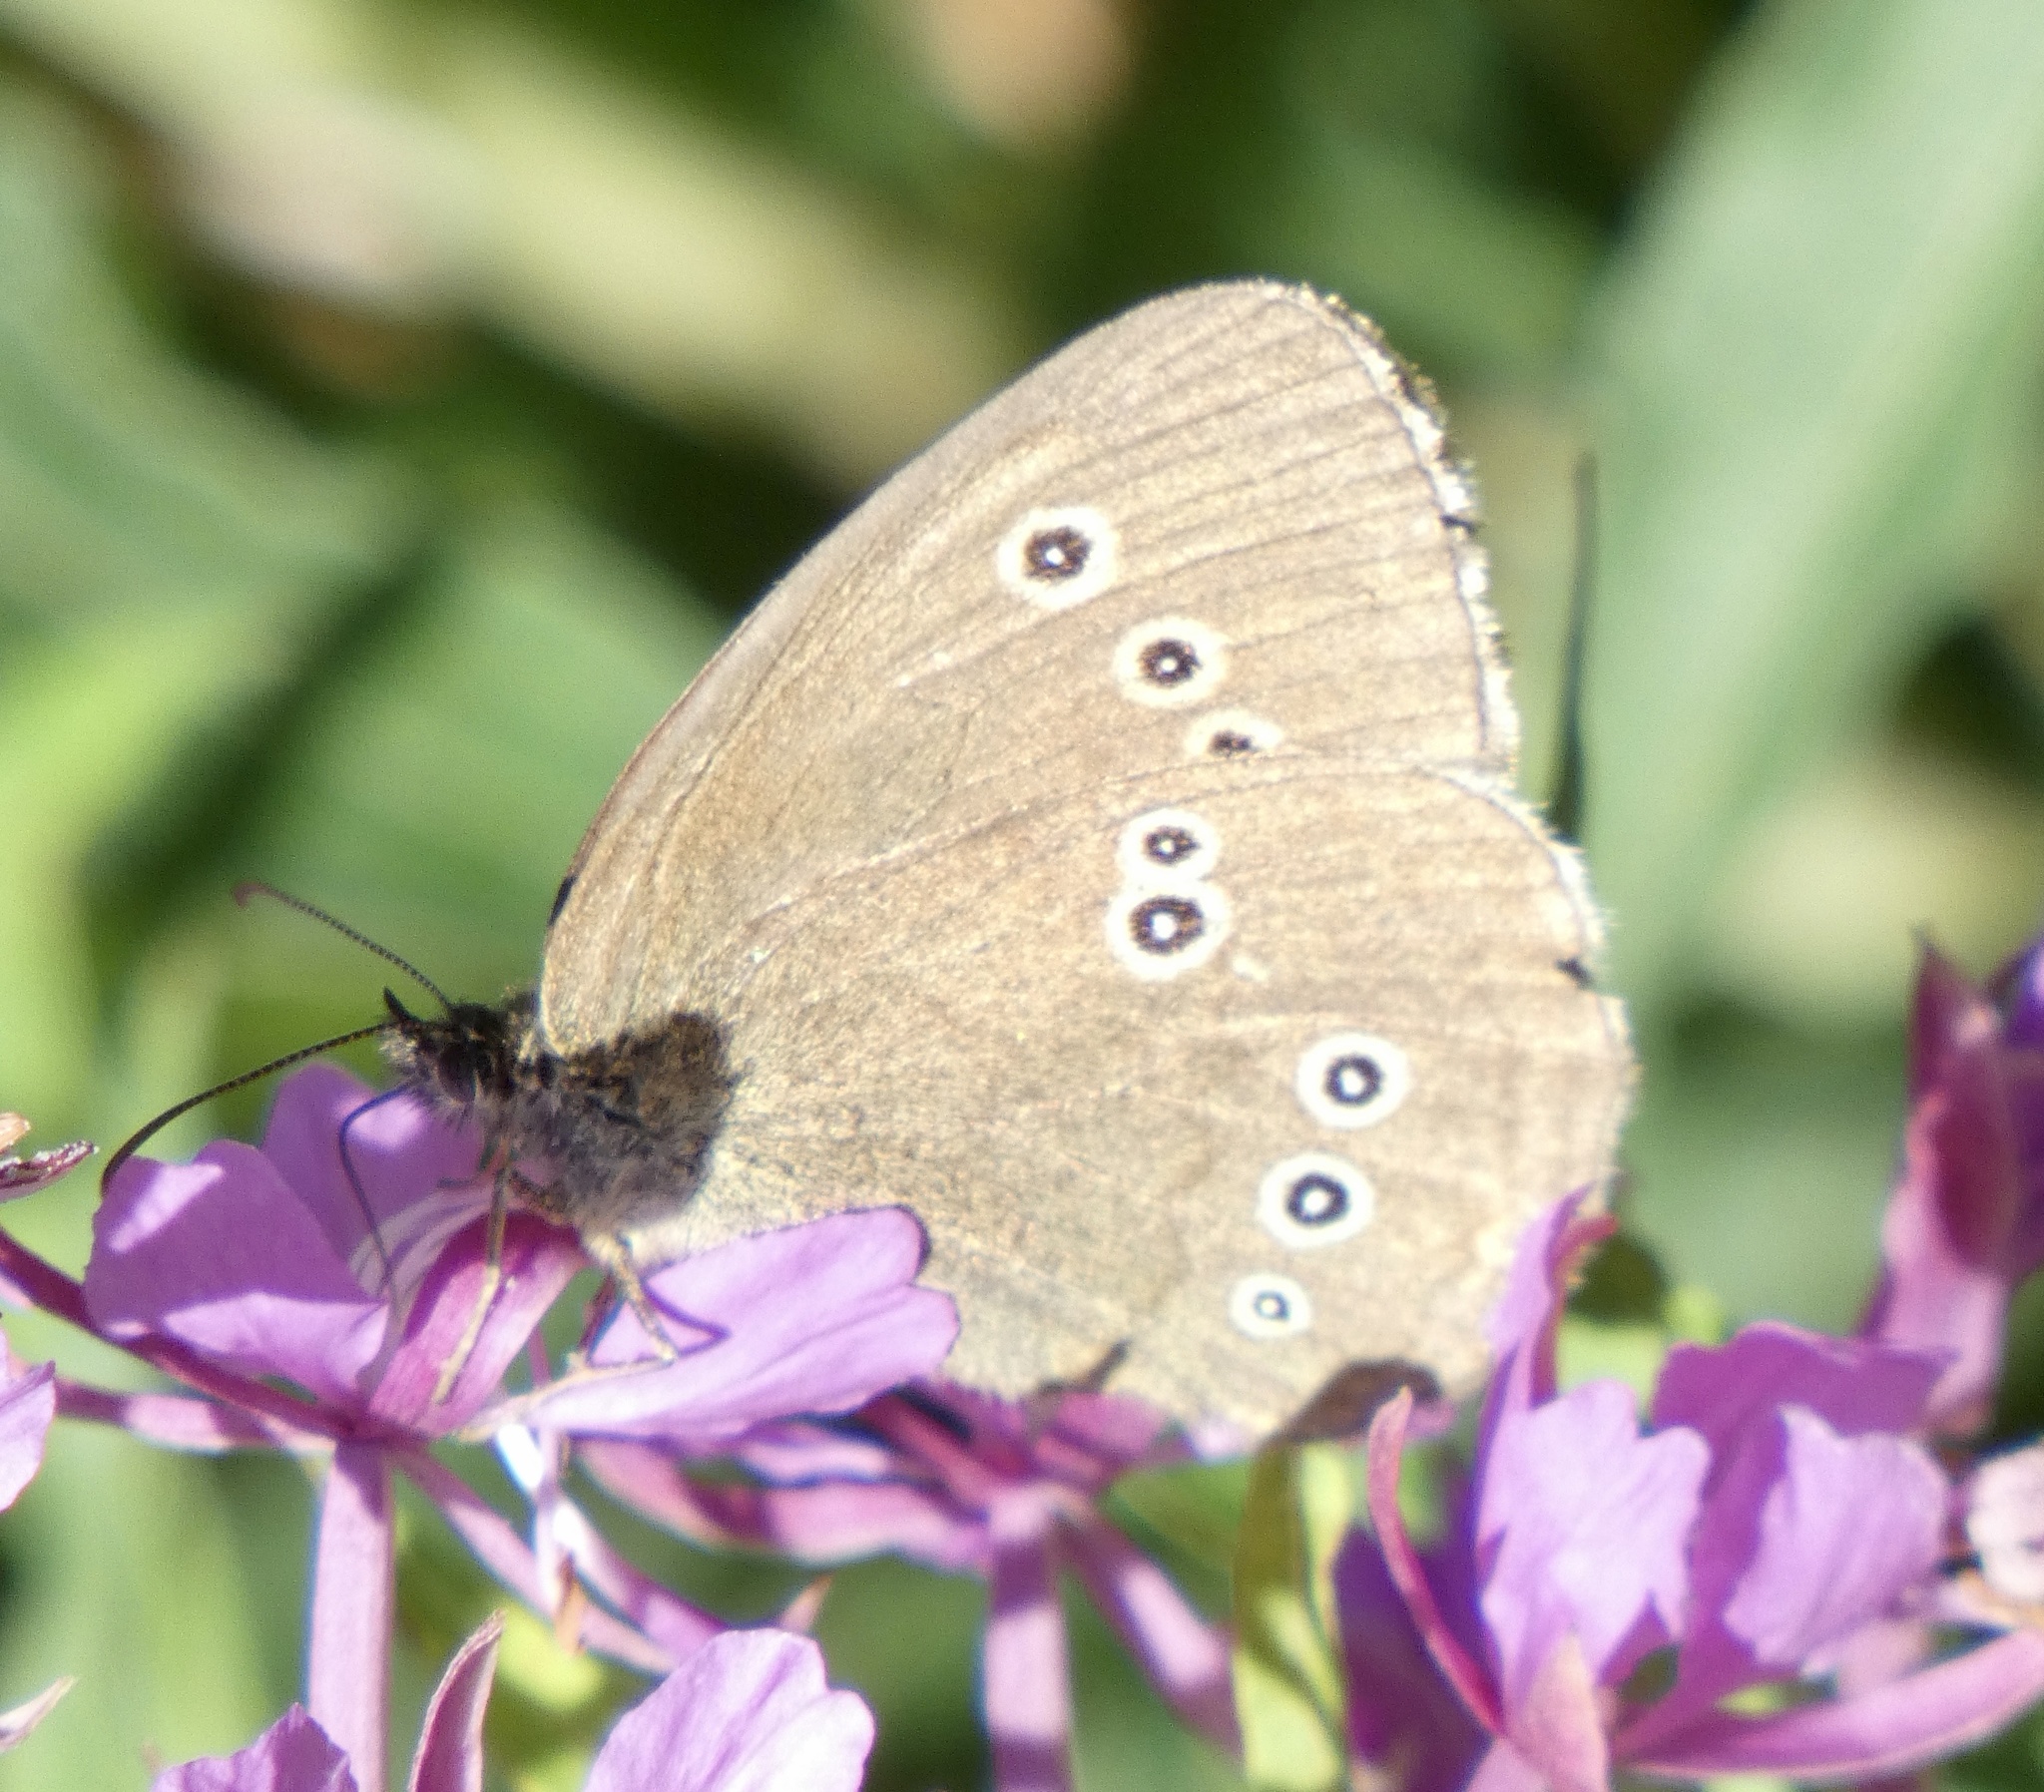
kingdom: Animalia
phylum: Arthropoda
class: Insecta
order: Lepidoptera
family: Nymphalidae
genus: Aphantopus
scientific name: Aphantopus hyperantus
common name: Ringlet
